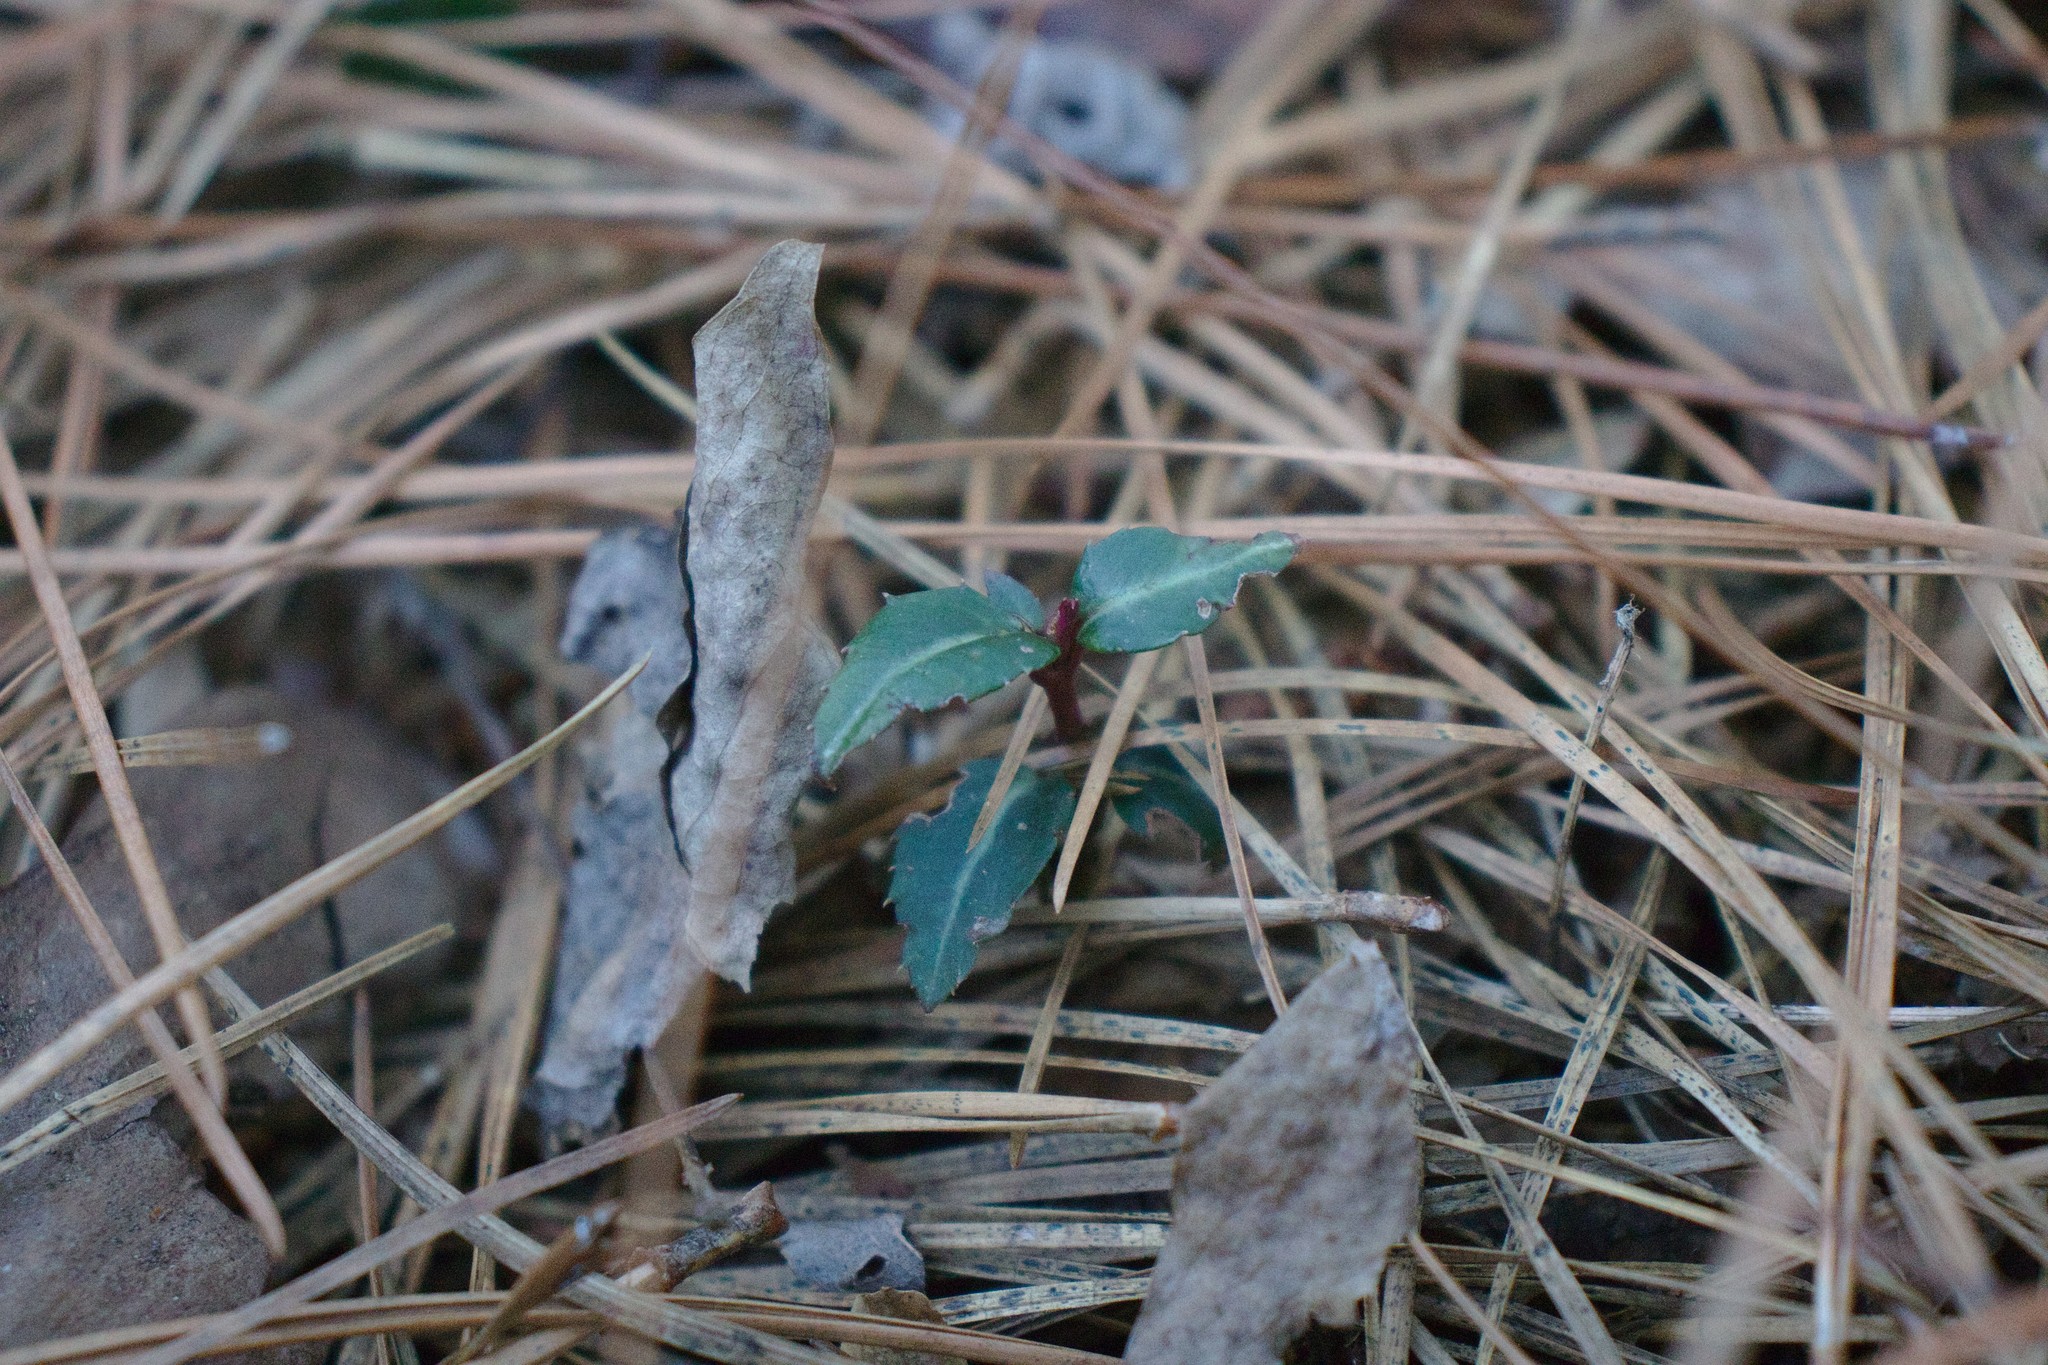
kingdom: Plantae
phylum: Tracheophyta
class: Magnoliopsida
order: Ericales
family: Ericaceae
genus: Chimaphila
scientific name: Chimaphila maculata
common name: Spotted pipsissewa
